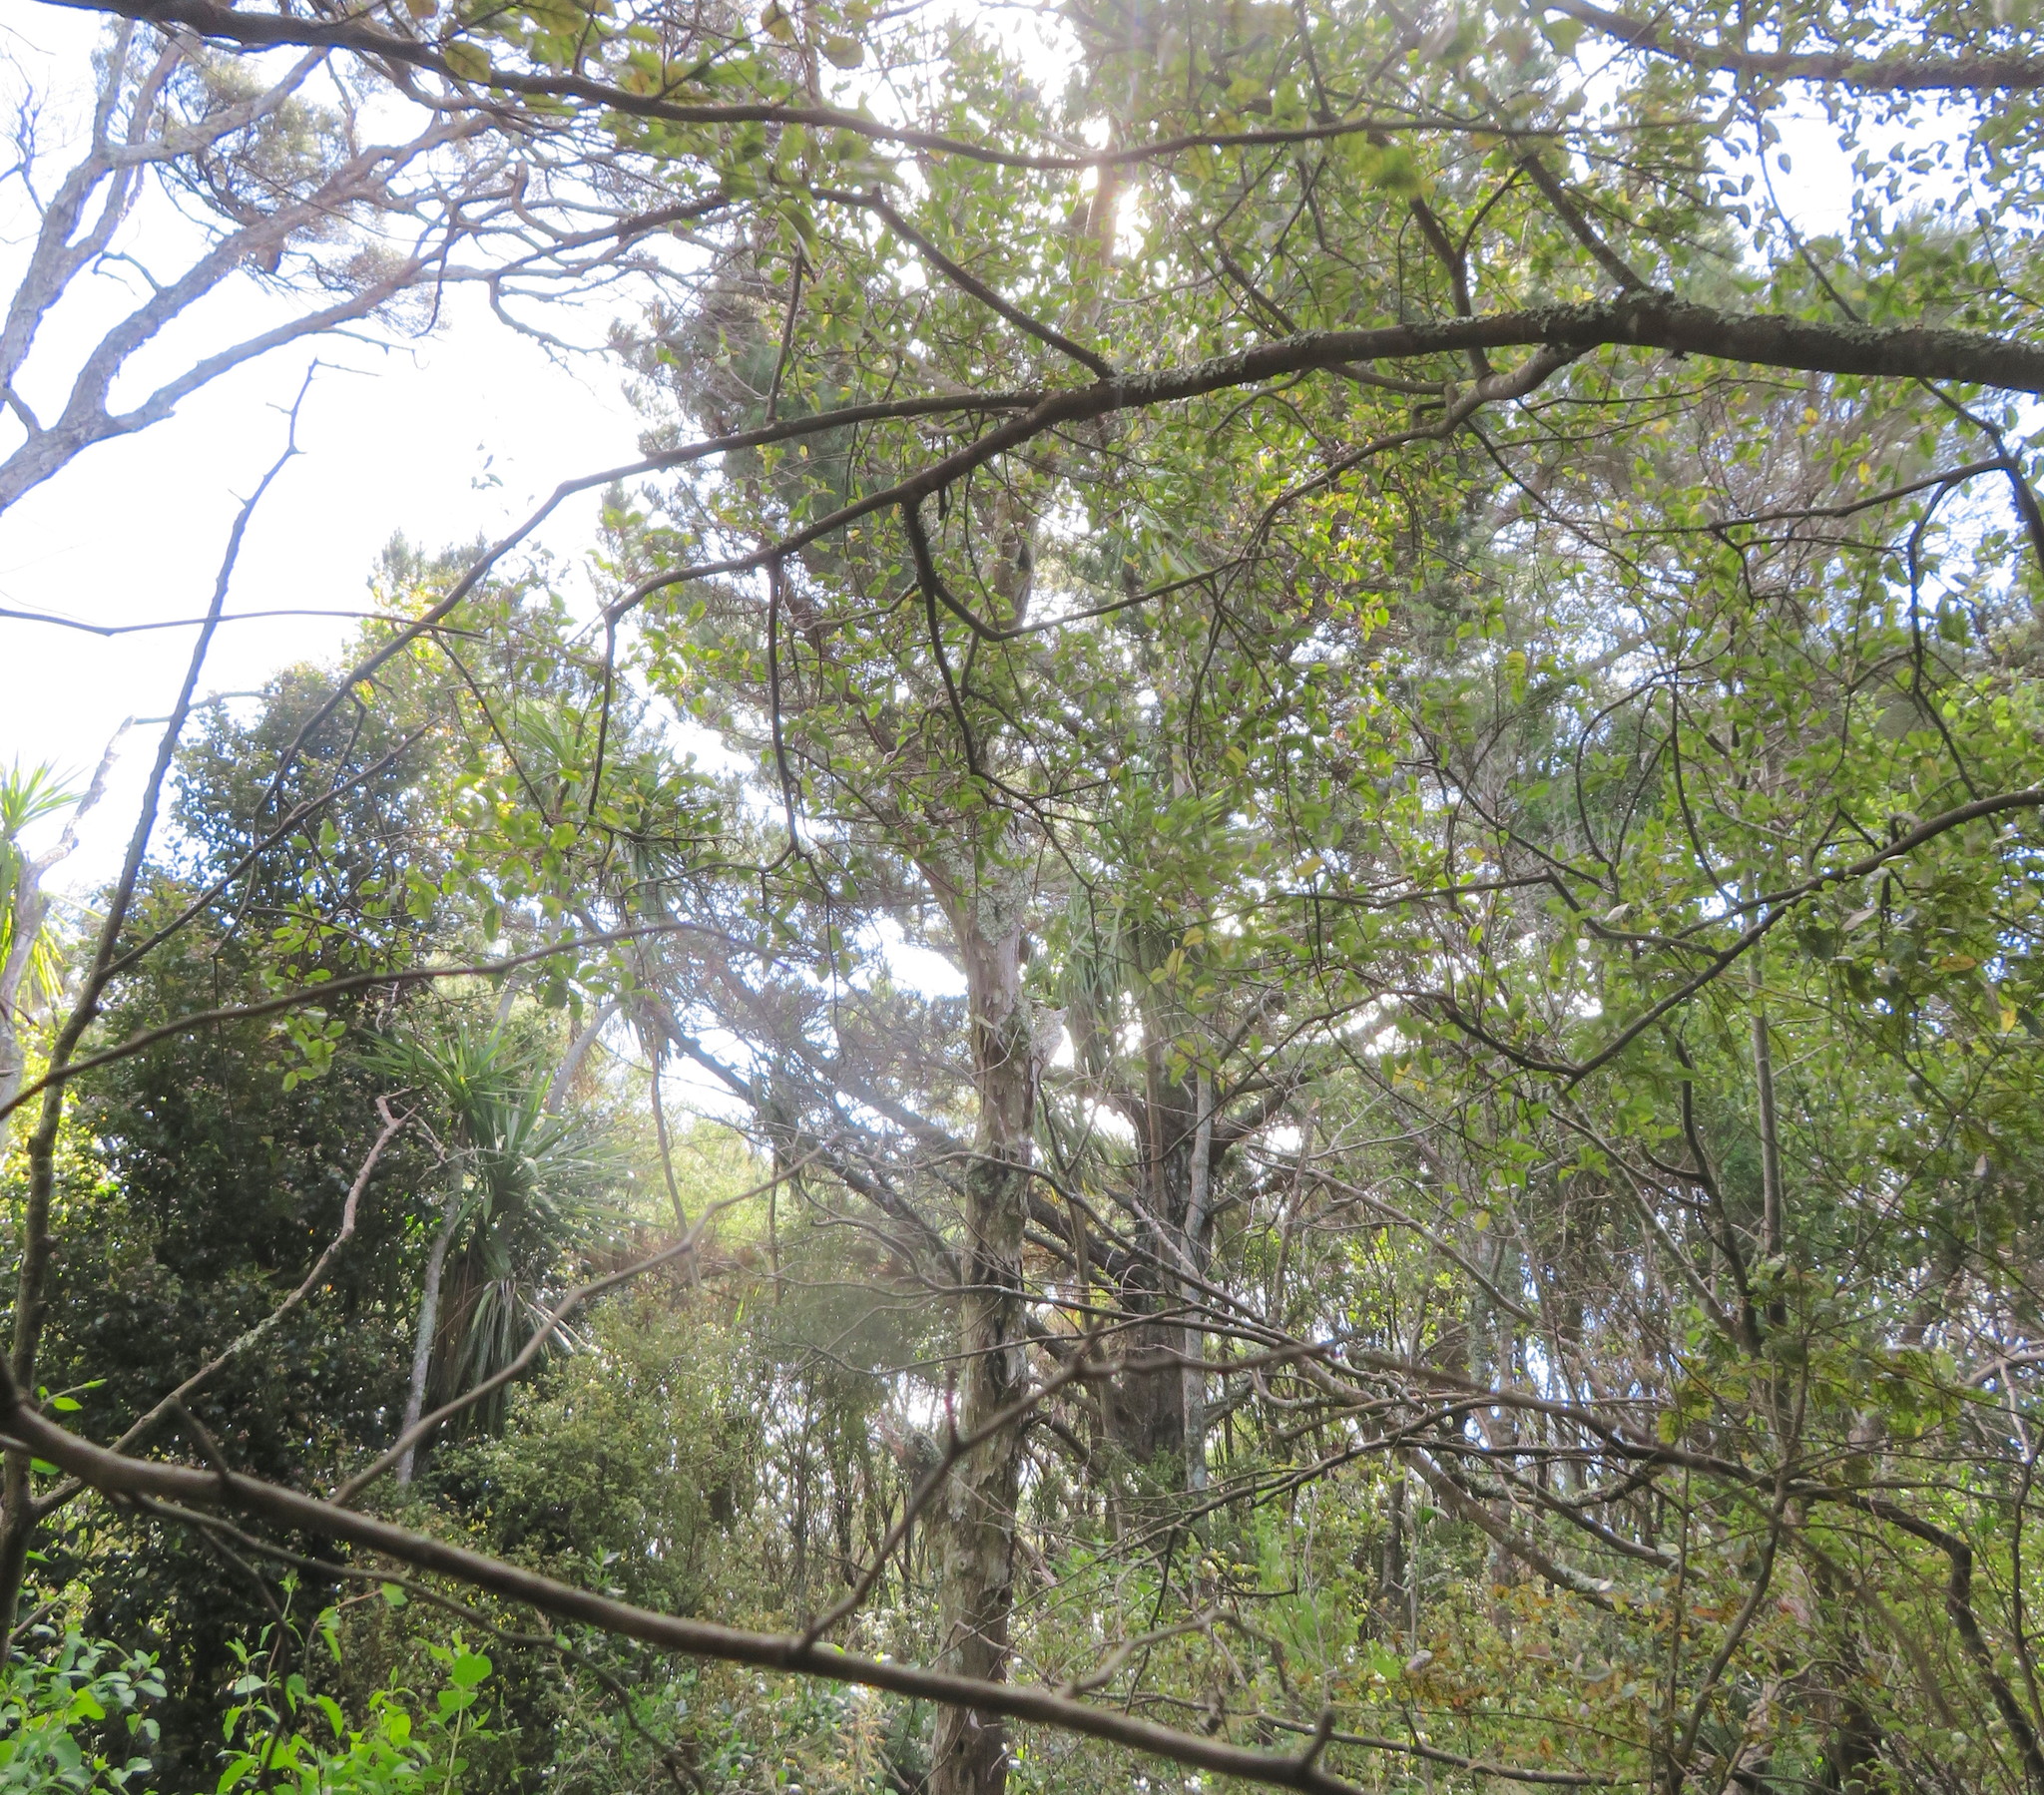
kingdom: Plantae
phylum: Tracheophyta
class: Liliopsida
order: Asparagales
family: Asparagaceae
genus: Cordyline
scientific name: Cordyline australis
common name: Cabbage-palm
